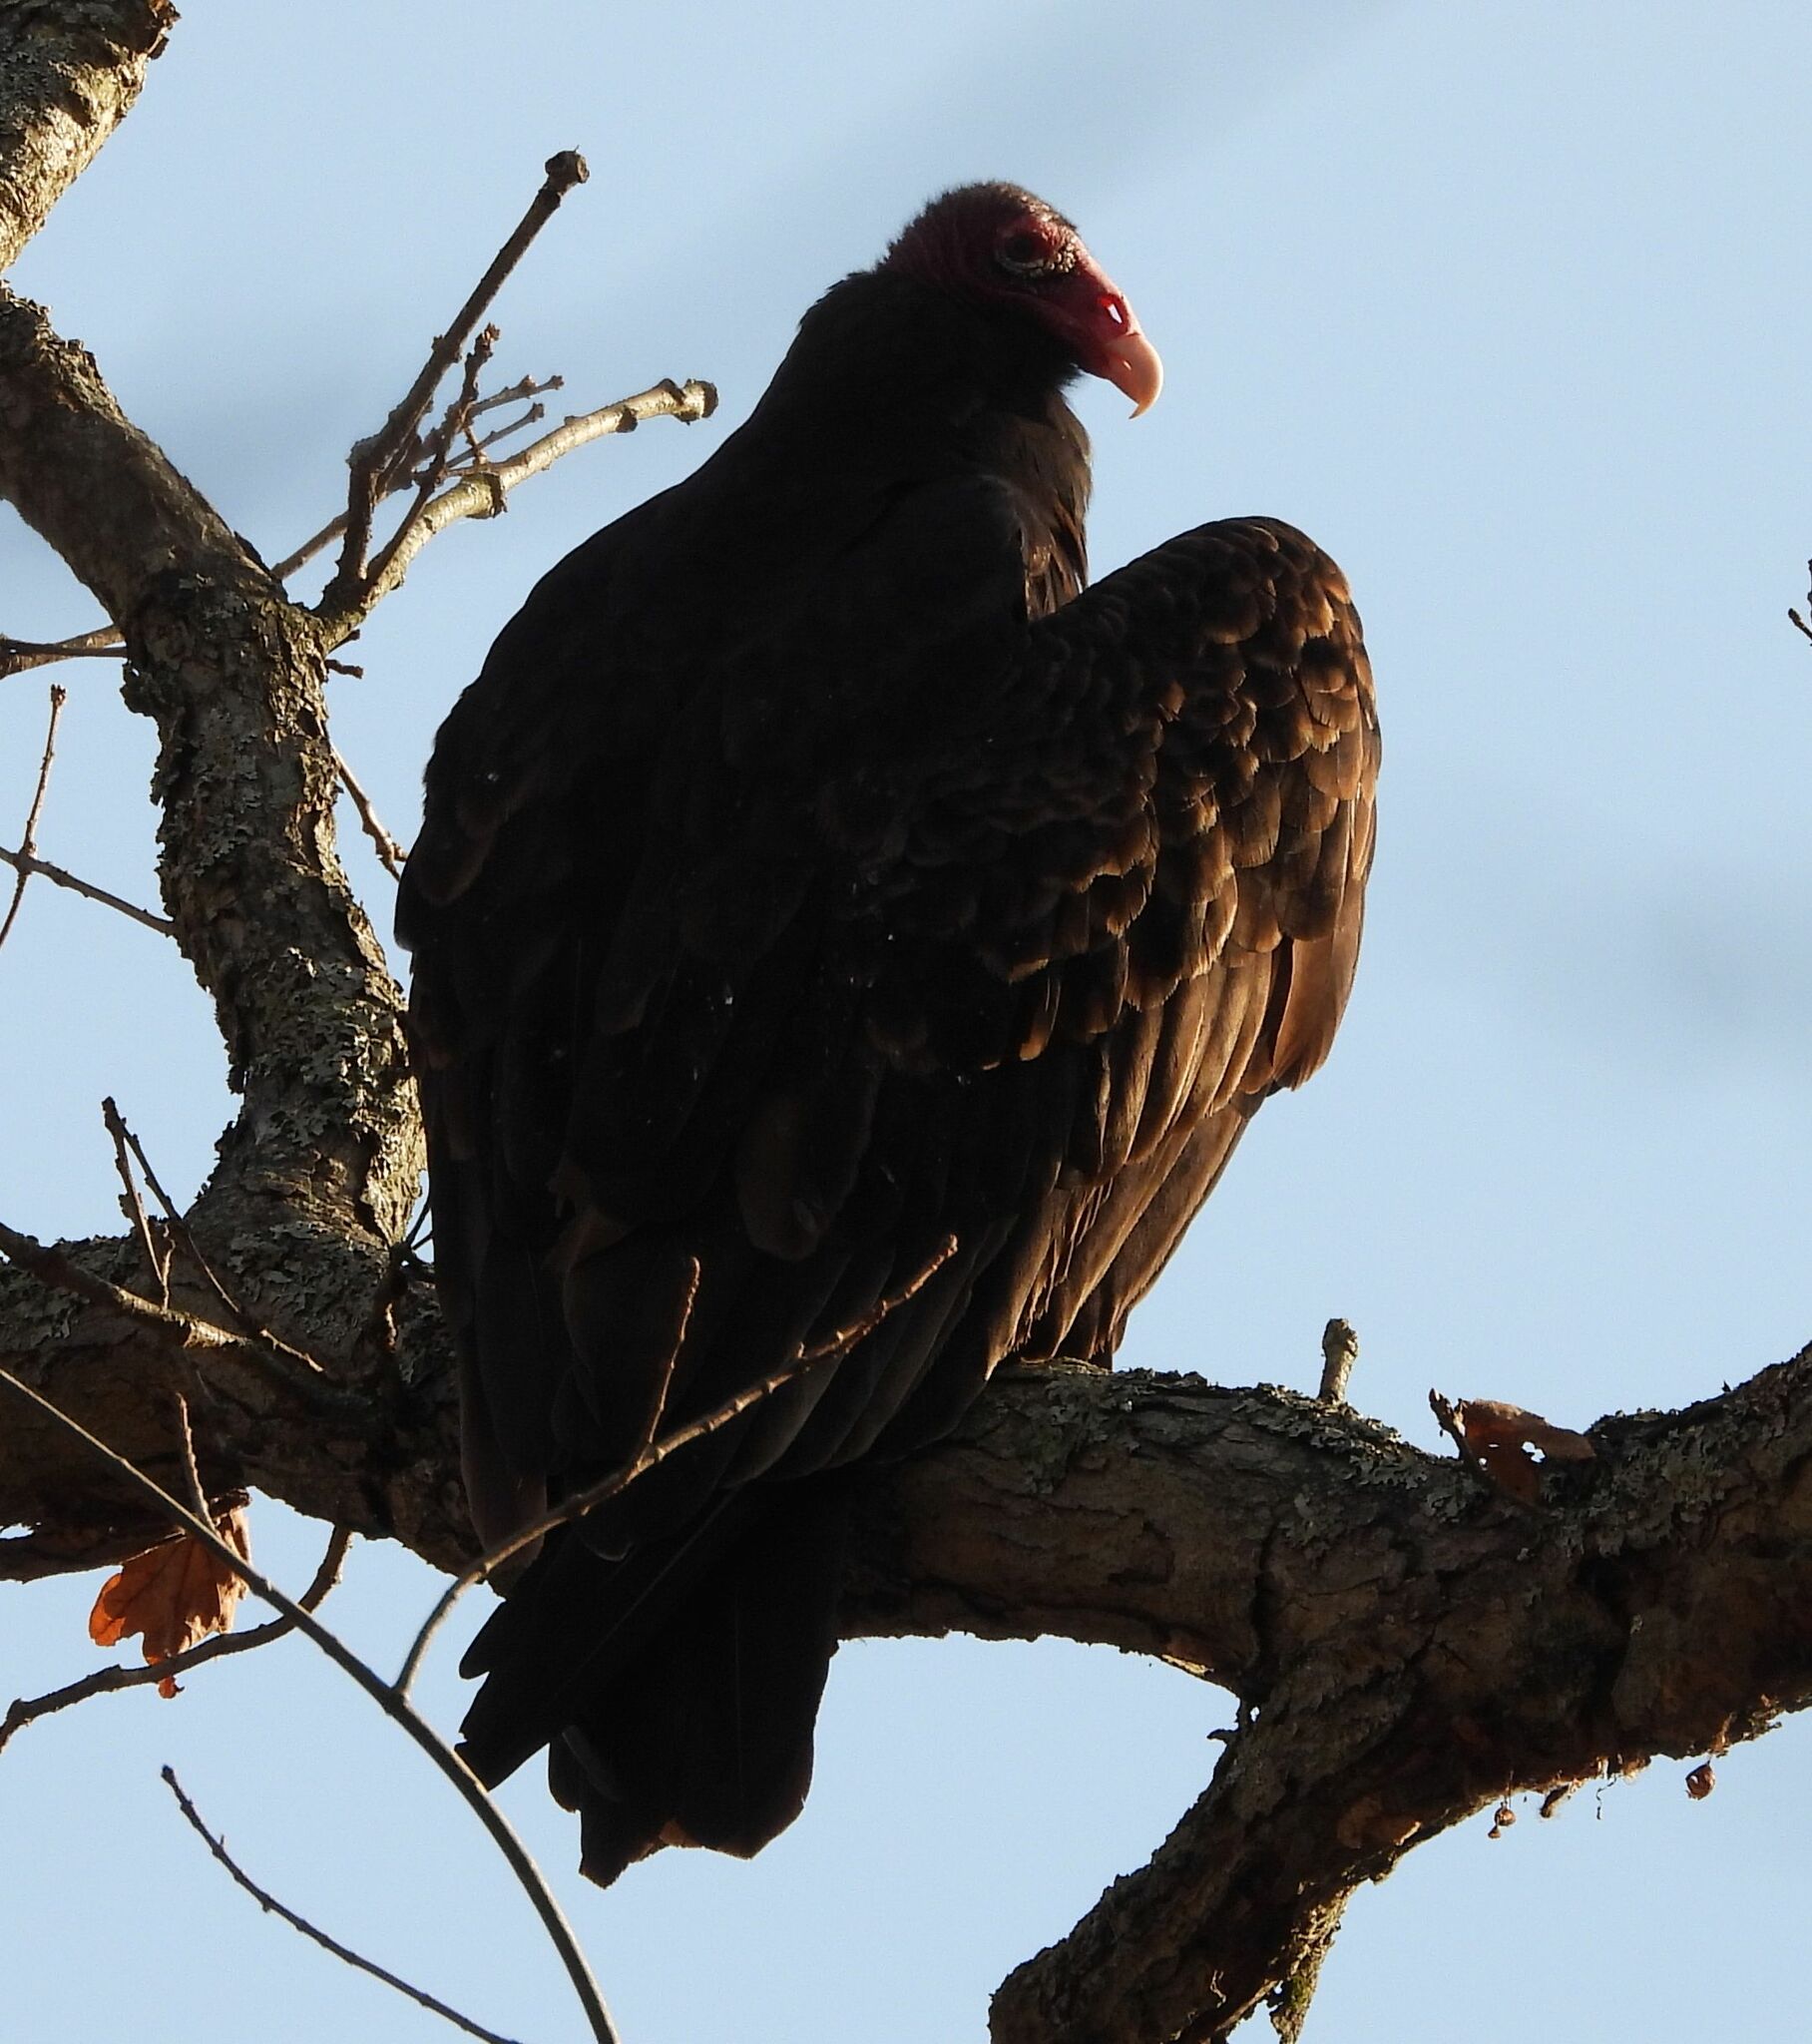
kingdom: Animalia
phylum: Chordata
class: Aves
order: Accipitriformes
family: Cathartidae
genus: Cathartes
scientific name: Cathartes aura
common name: Turkey vulture
